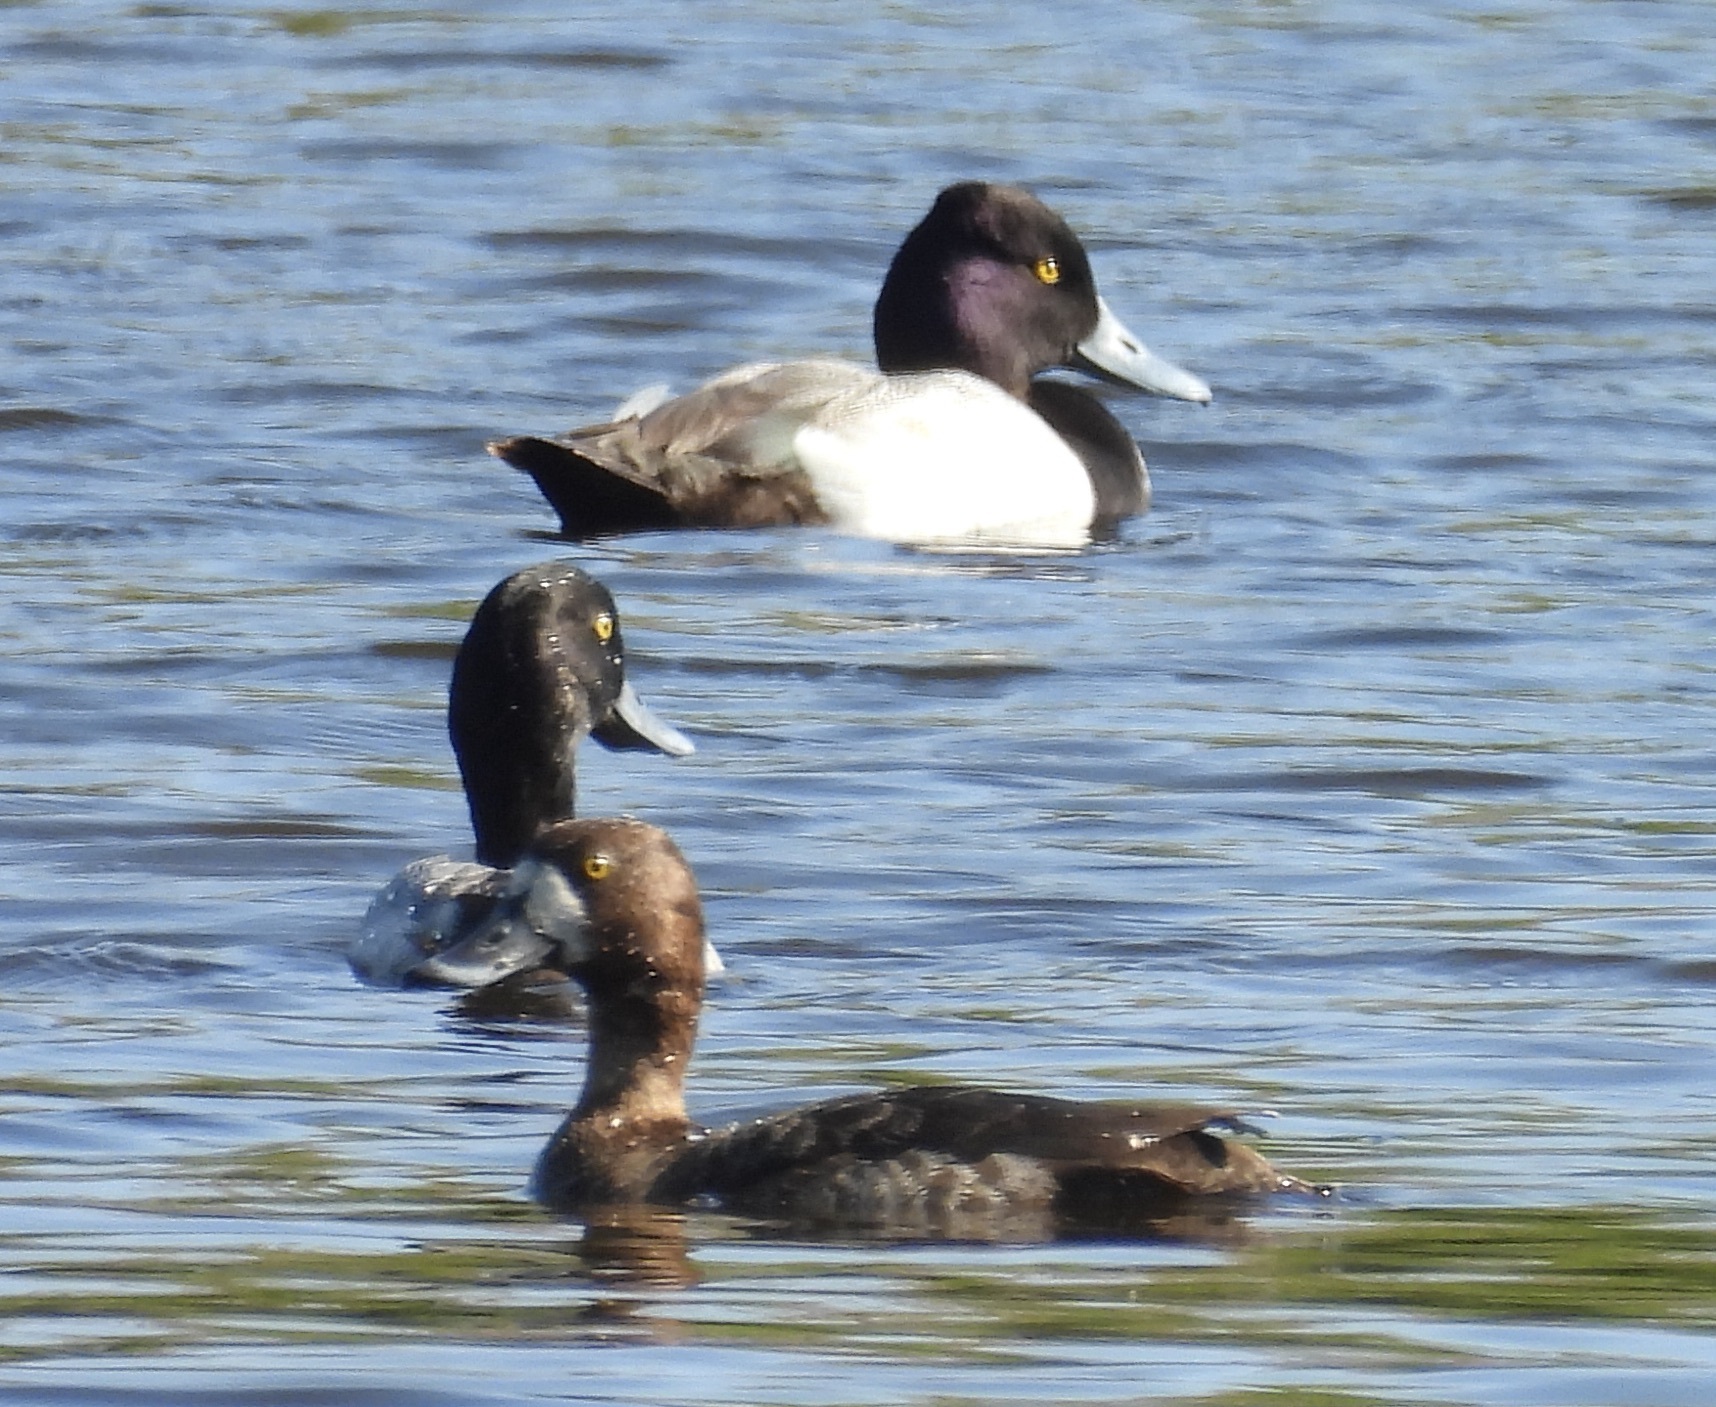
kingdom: Animalia
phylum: Chordata
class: Aves
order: Anseriformes
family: Anatidae
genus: Aythya
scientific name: Aythya affinis
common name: Lesser scaup
